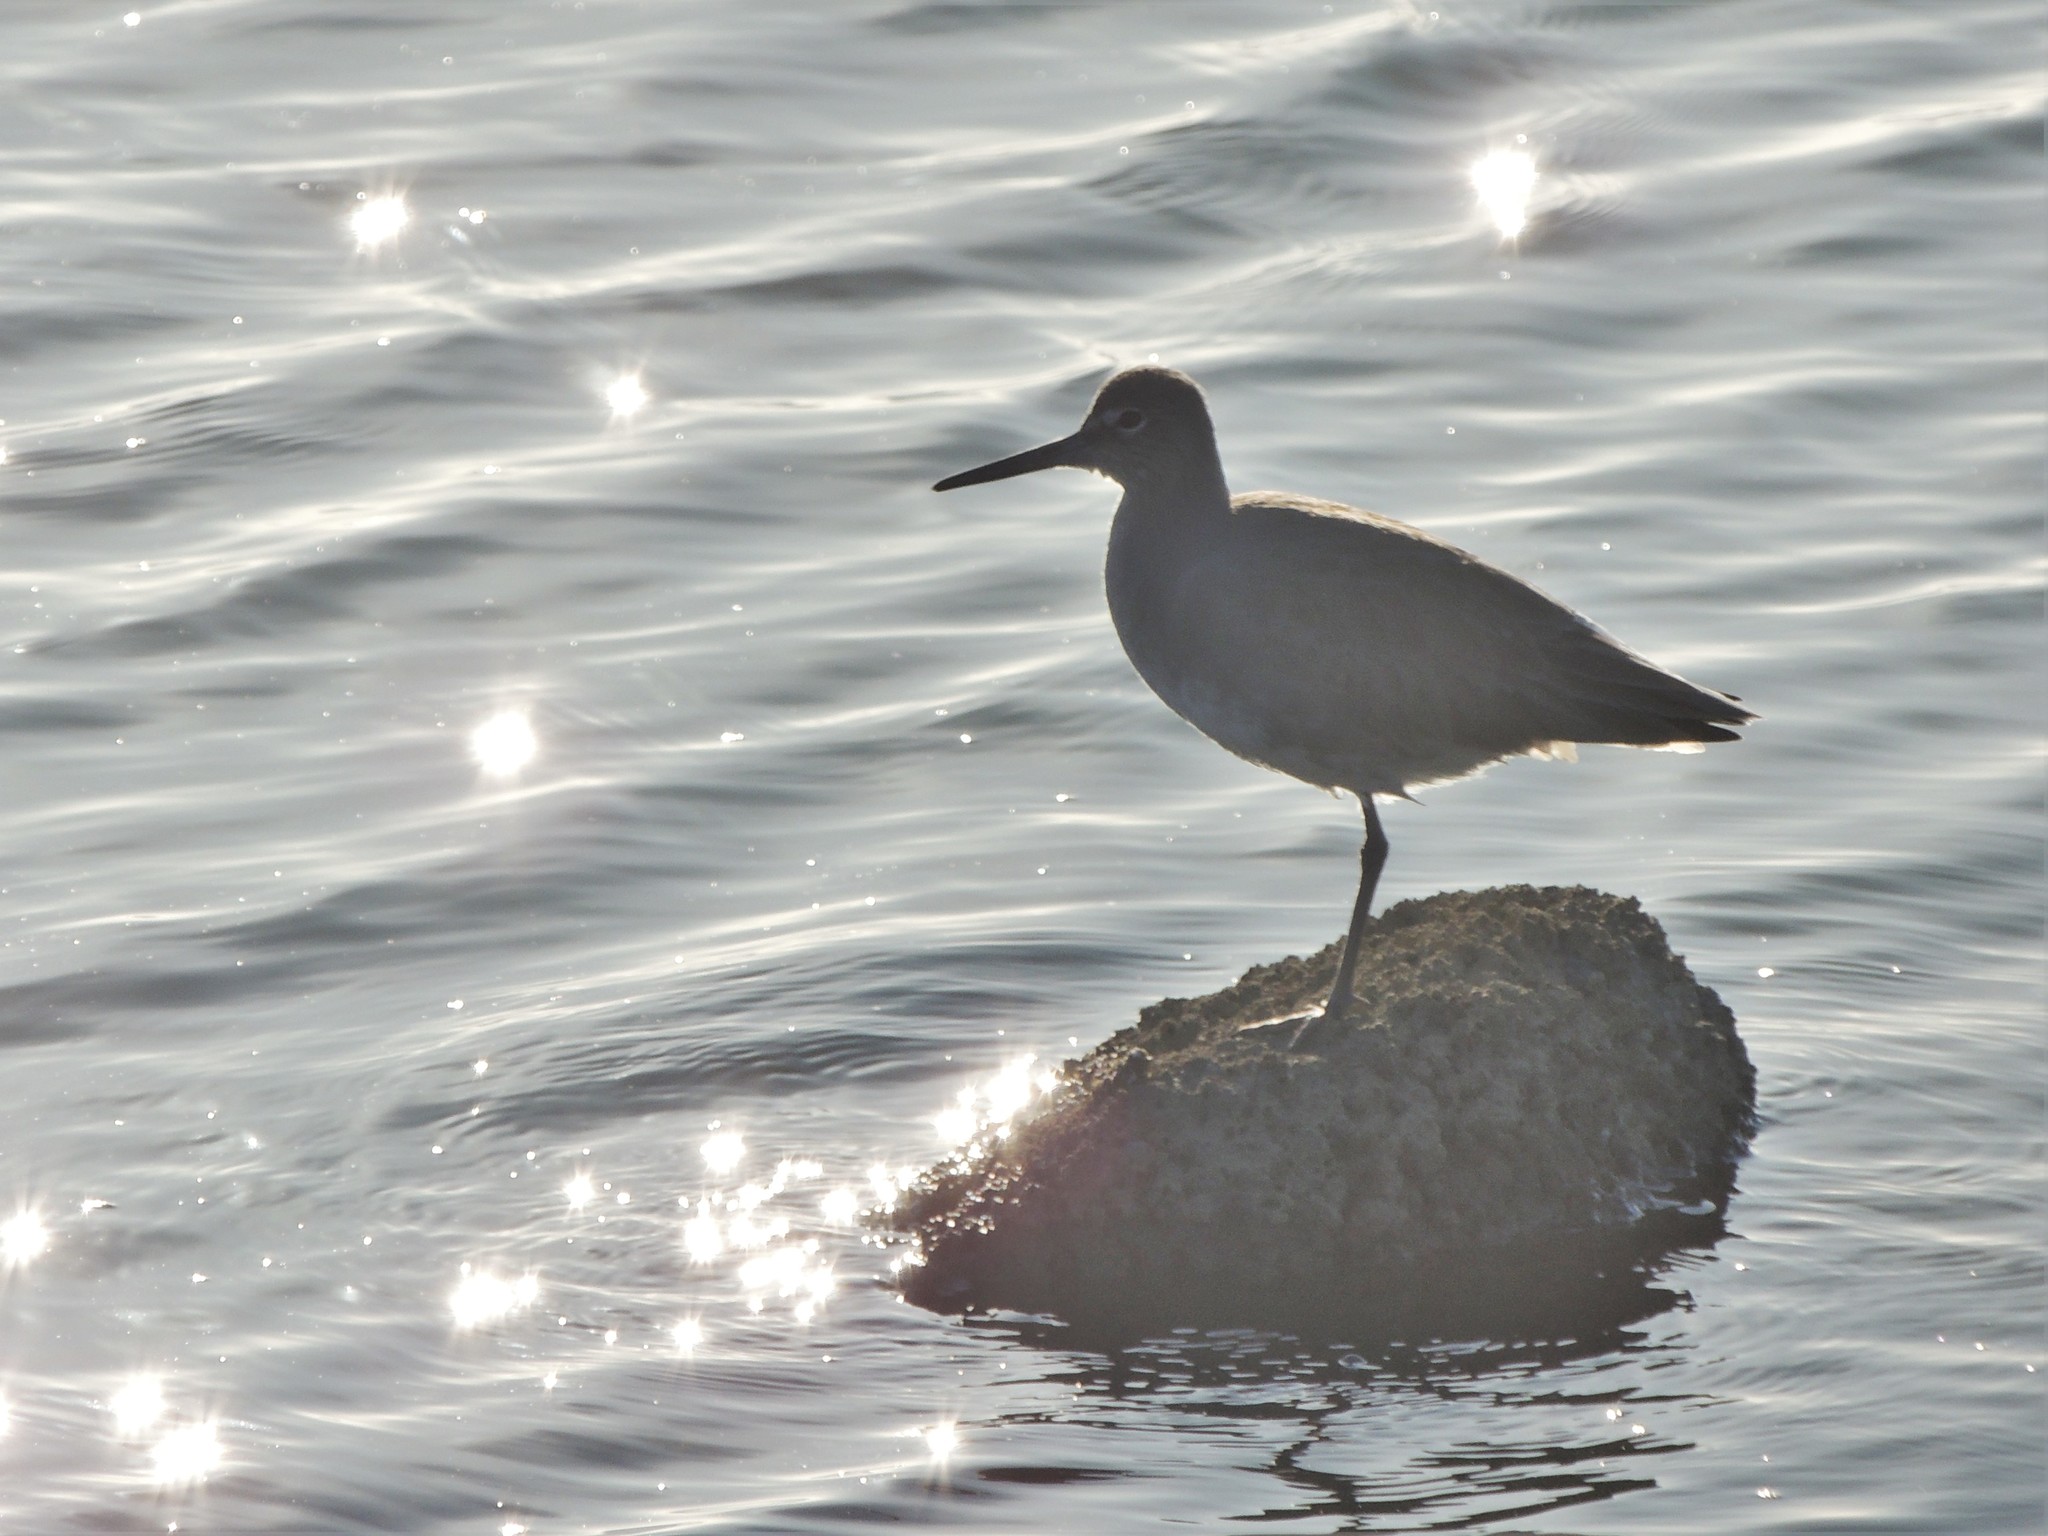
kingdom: Animalia
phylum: Chordata
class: Aves
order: Charadriiformes
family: Scolopacidae
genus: Tringa
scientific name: Tringa semipalmata
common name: Willet
